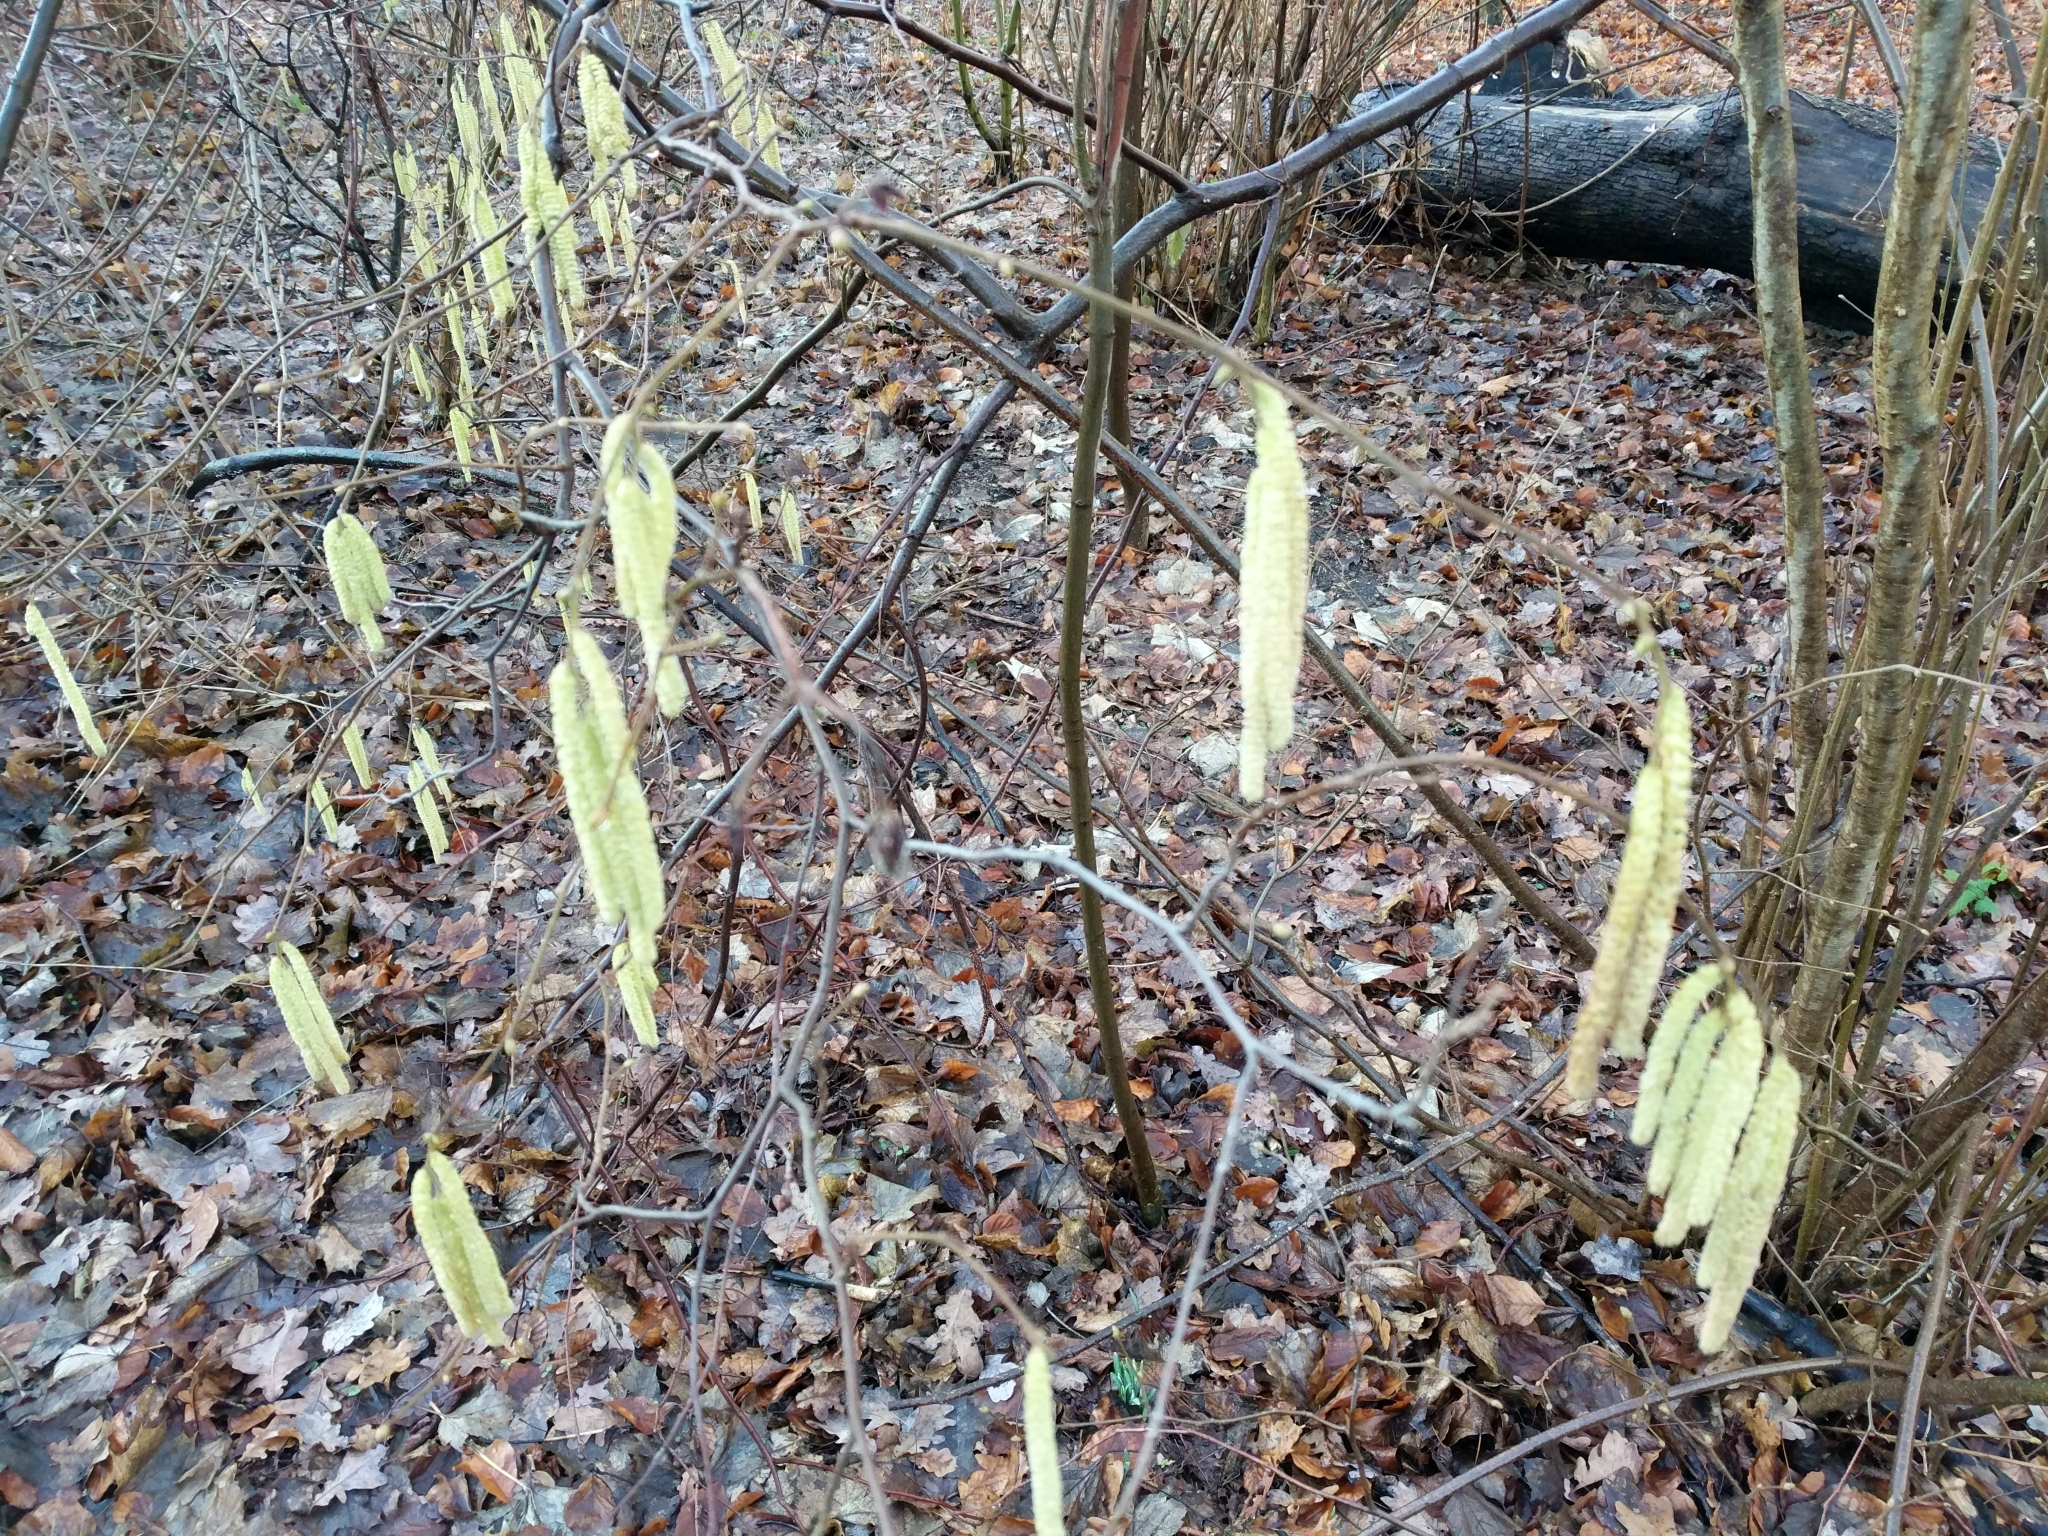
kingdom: Plantae
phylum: Tracheophyta
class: Magnoliopsida
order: Fagales
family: Betulaceae
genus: Corylus
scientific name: Corylus avellana
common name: European hazel
